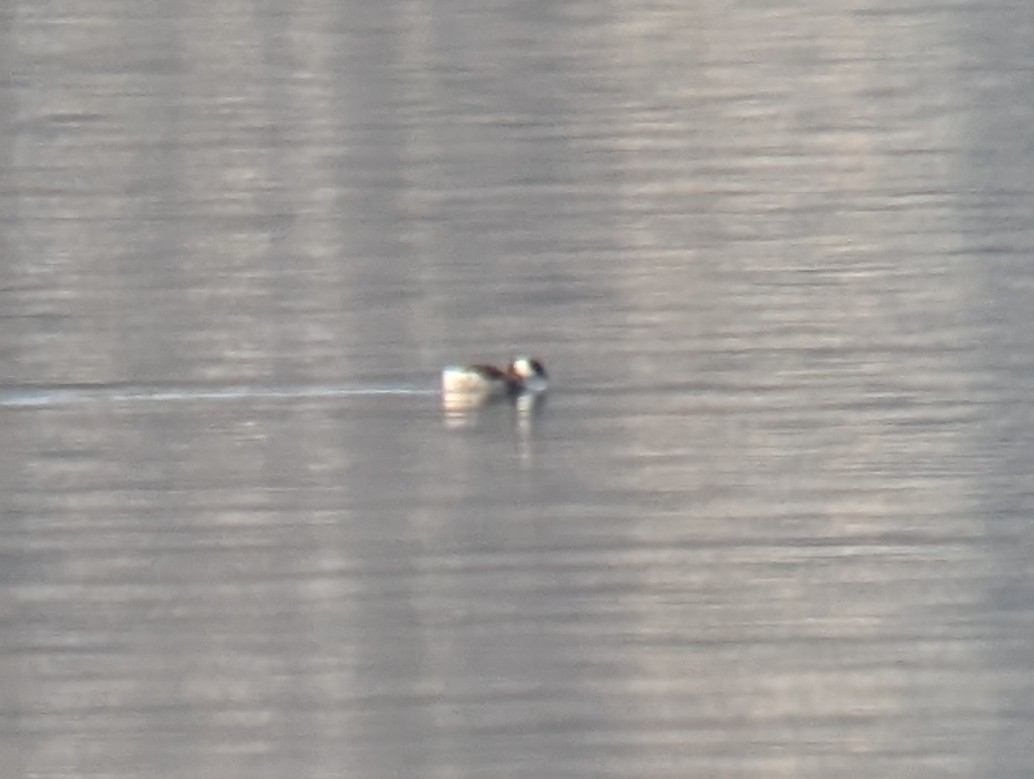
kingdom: Animalia
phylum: Chordata
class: Aves
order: Podicipediformes
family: Podicipedidae
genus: Podiceps
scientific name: Podiceps auritus
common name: Horned grebe
